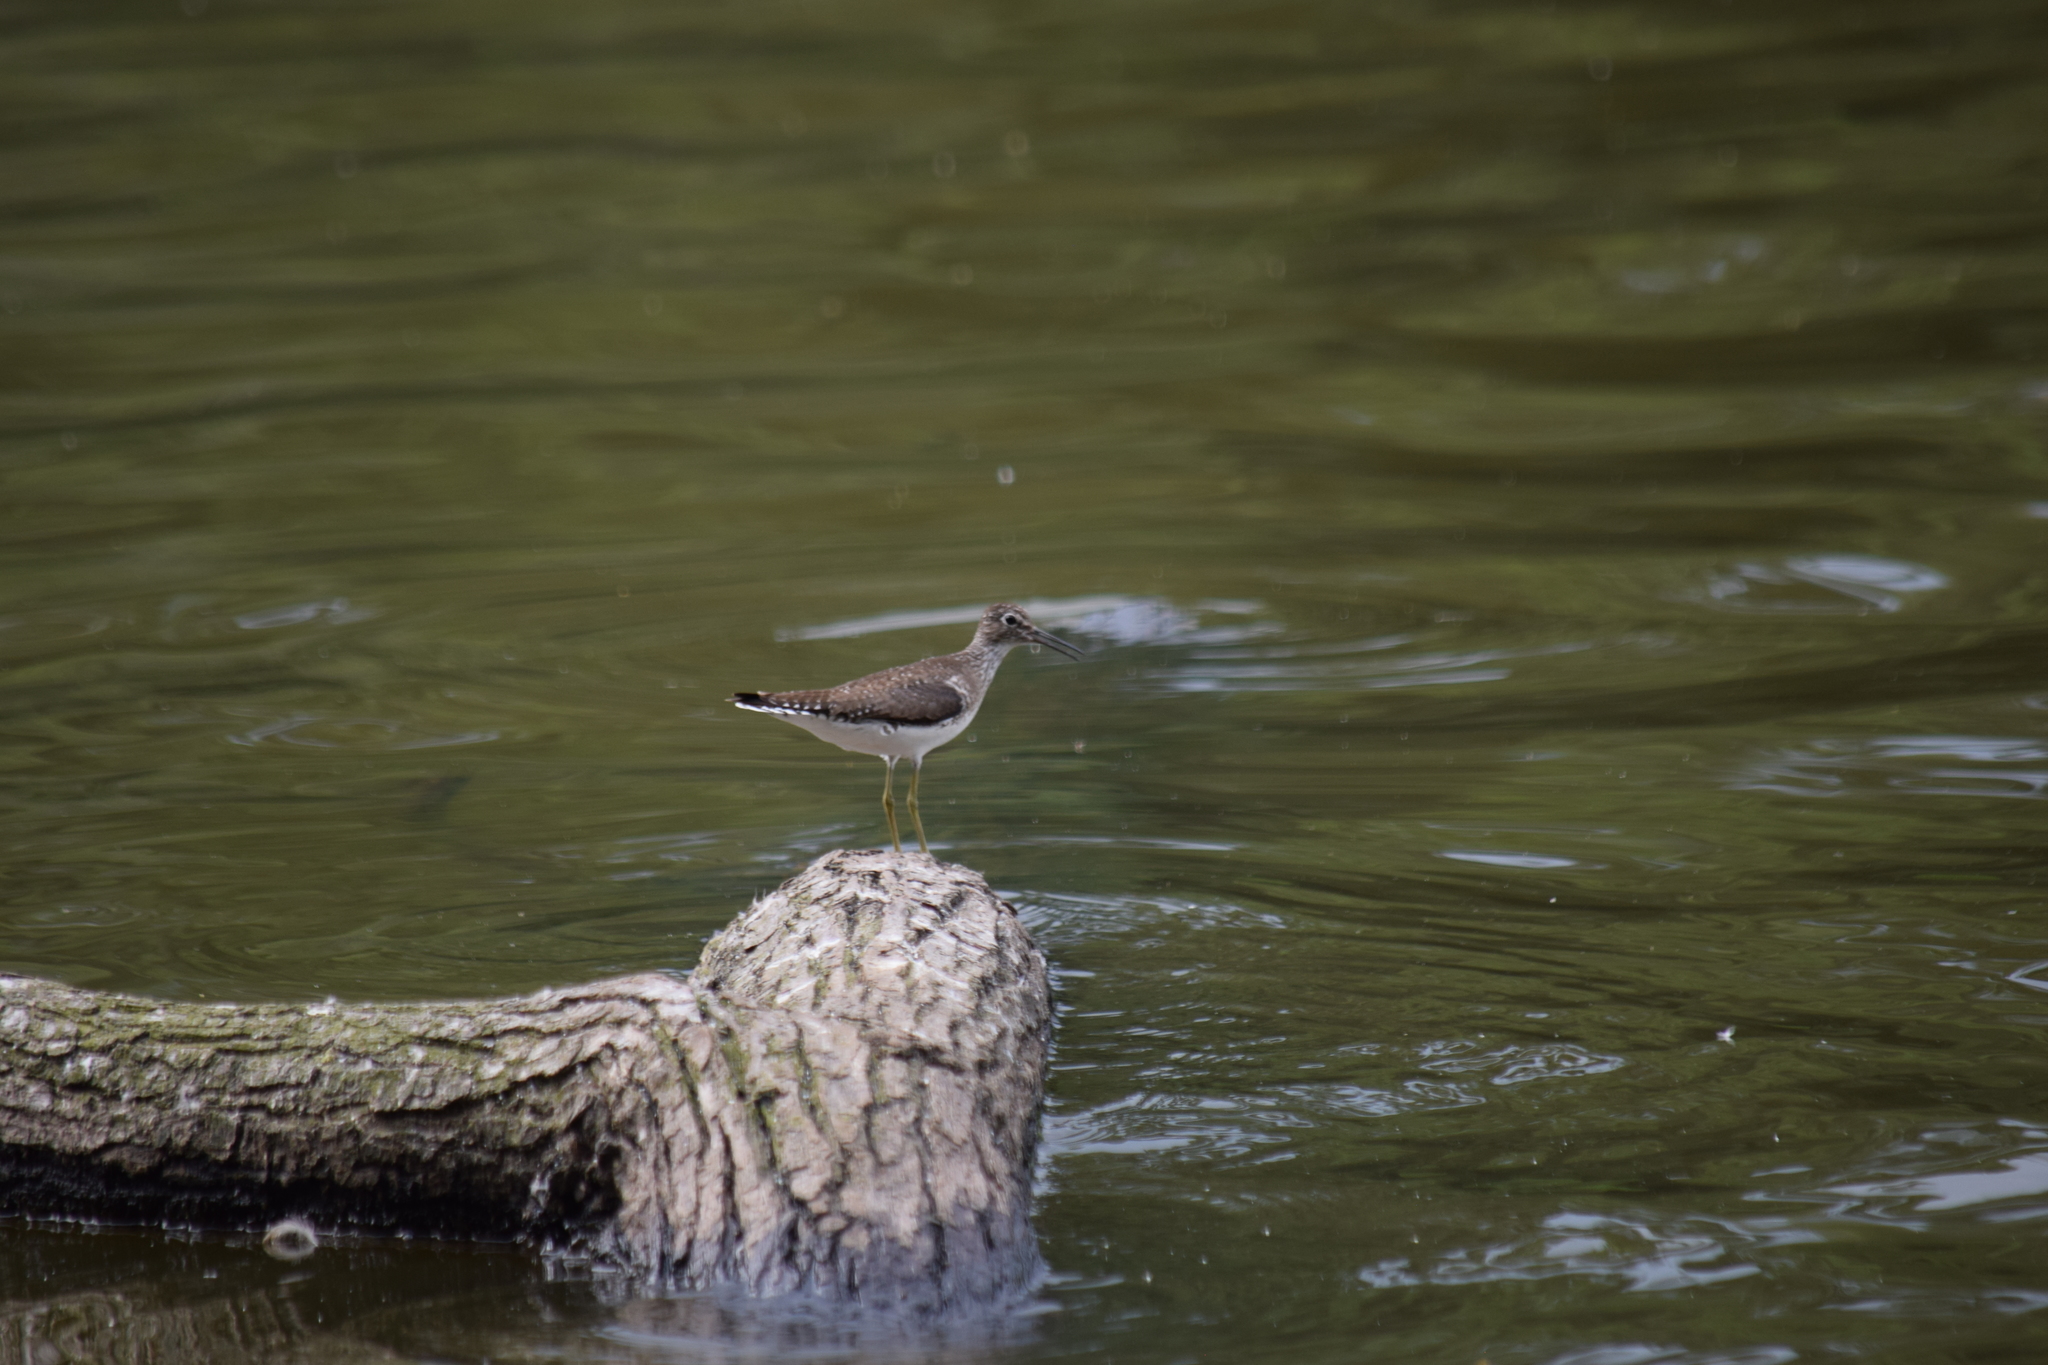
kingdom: Animalia
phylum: Chordata
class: Aves
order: Charadriiformes
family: Scolopacidae
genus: Tringa
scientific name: Tringa solitaria
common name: Solitary sandpiper
